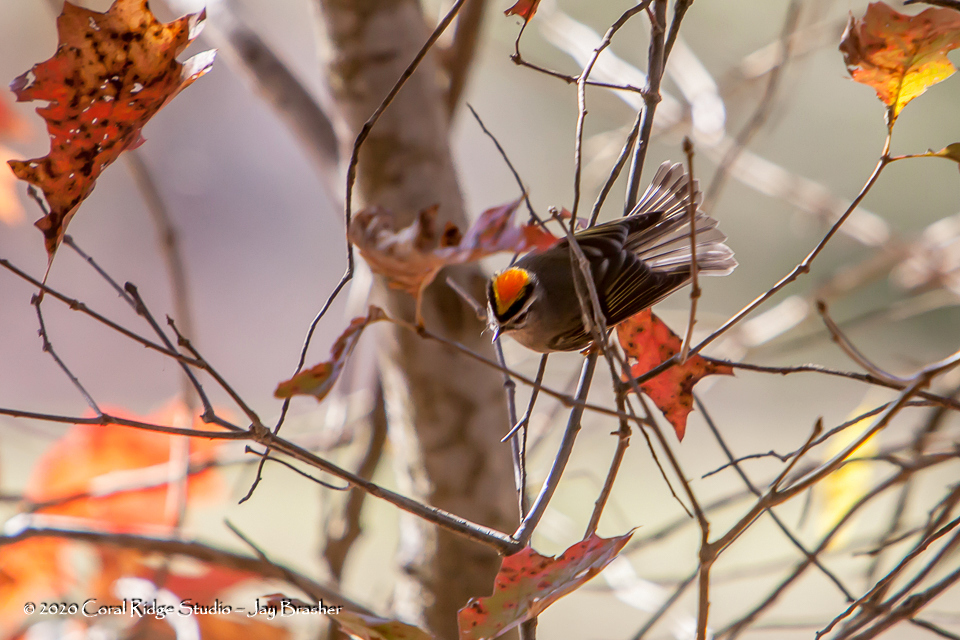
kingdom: Animalia
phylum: Chordata
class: Aves
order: Passeriformes
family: Regulidae
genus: Regulus
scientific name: Regulus satrapa
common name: Golden-crowned kinglet
